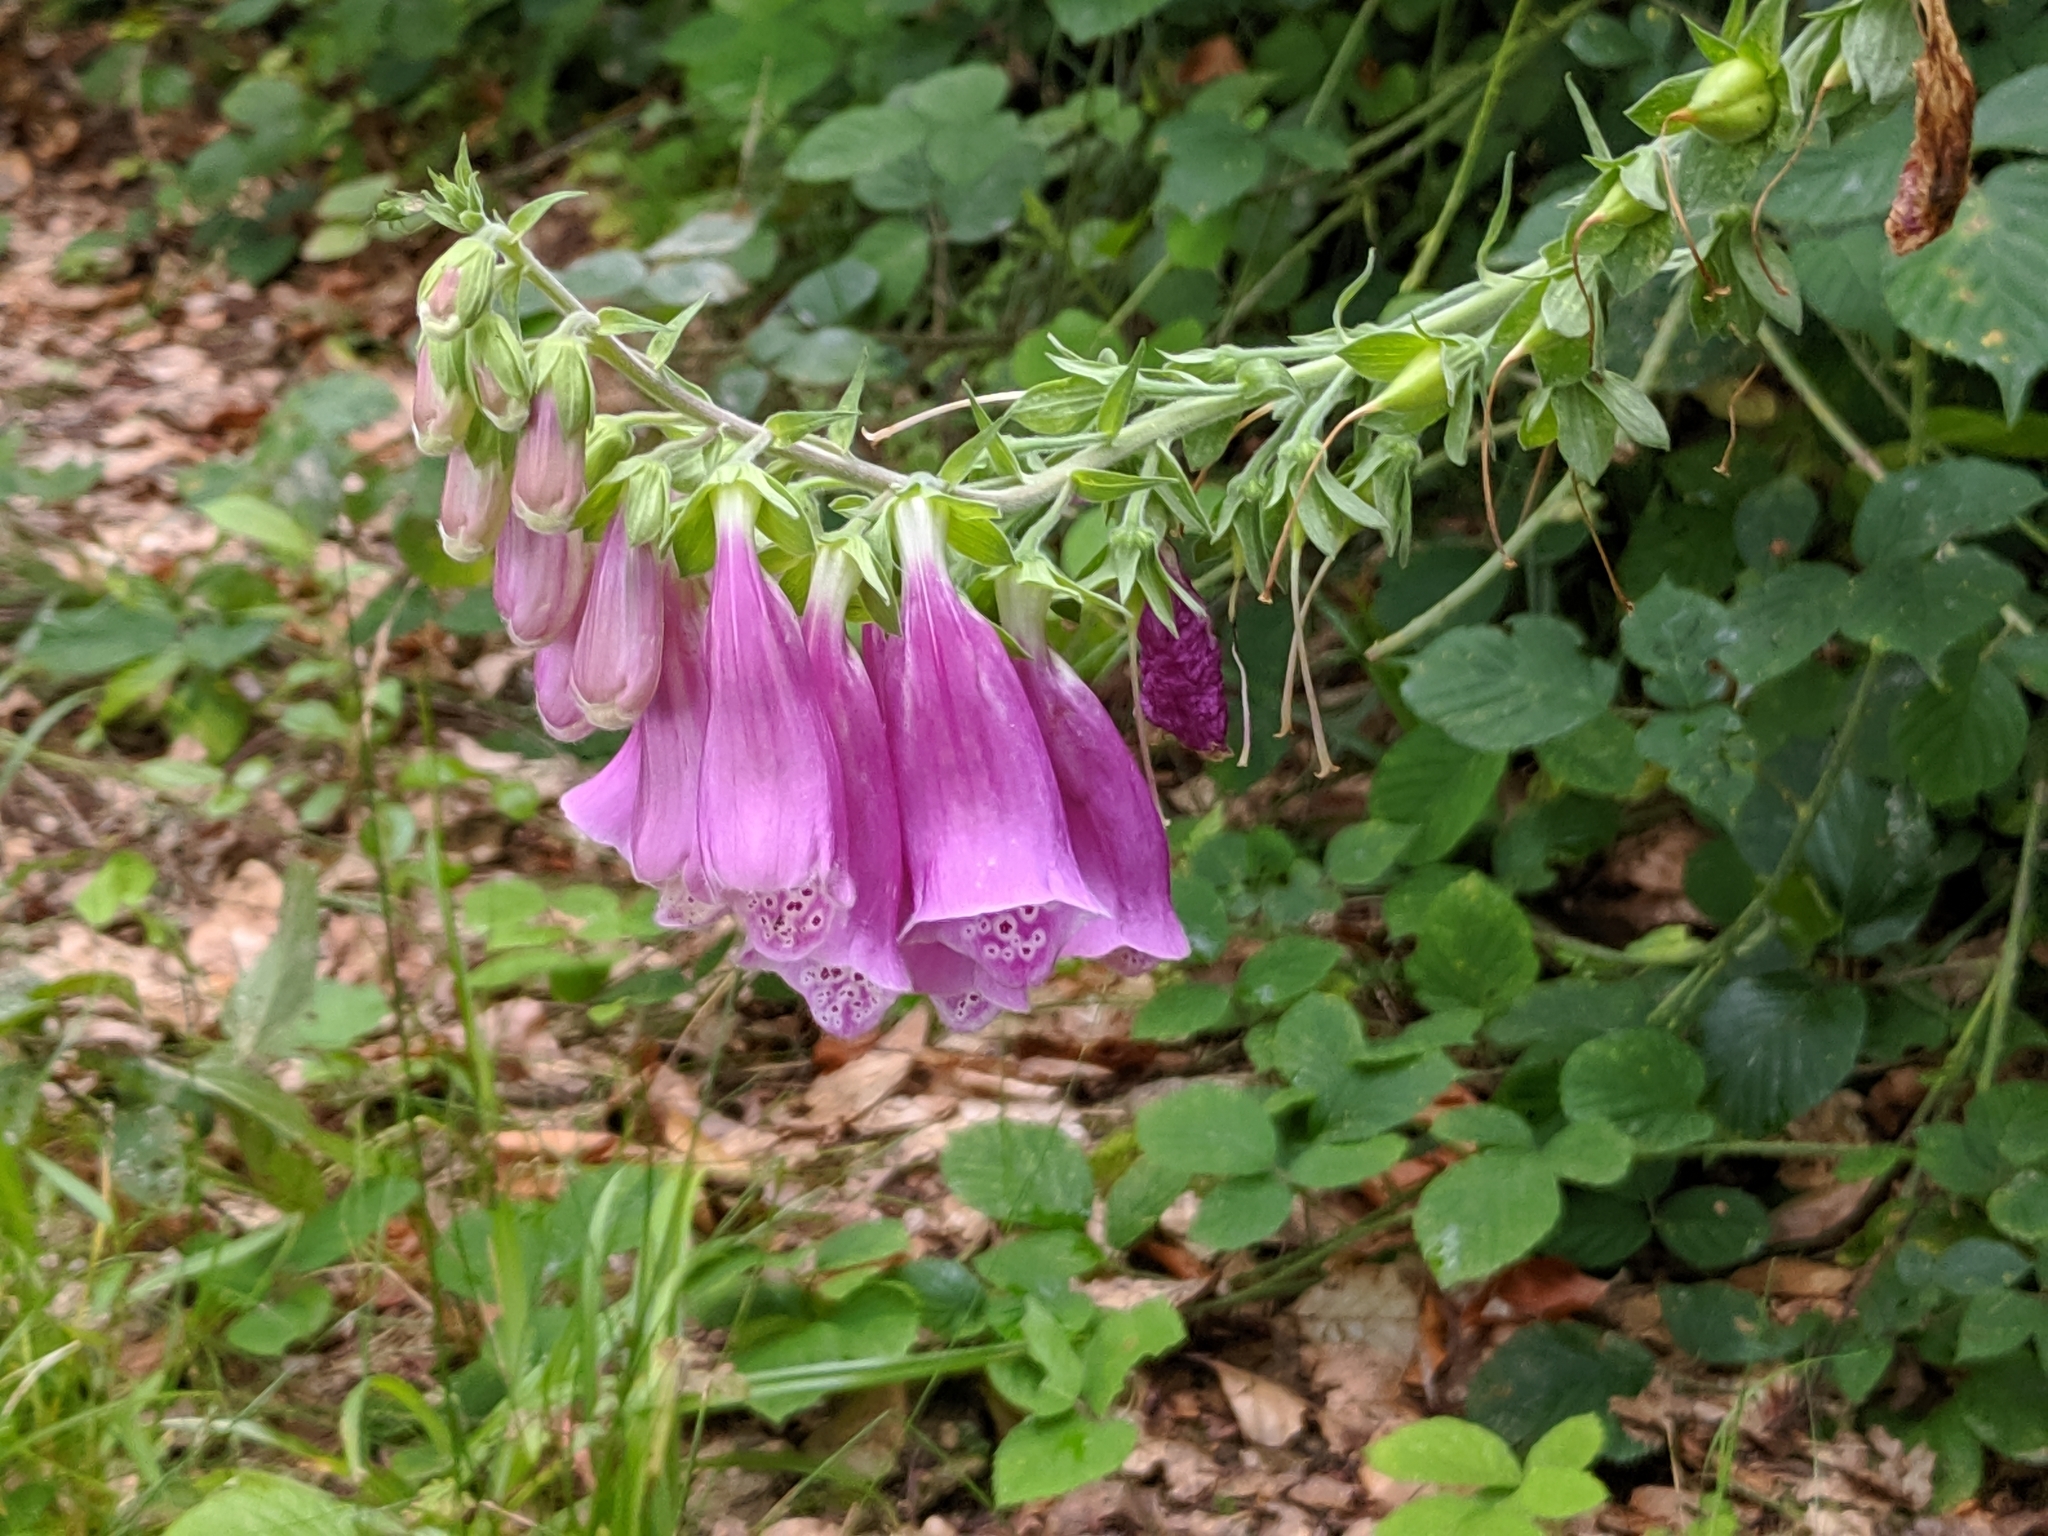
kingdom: Plantae
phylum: Tracheophyta
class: Magnoliopsida
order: Lamiales
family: Plantaginaceae
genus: Digitalis
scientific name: Digitalis purpurea
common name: Foxglove
